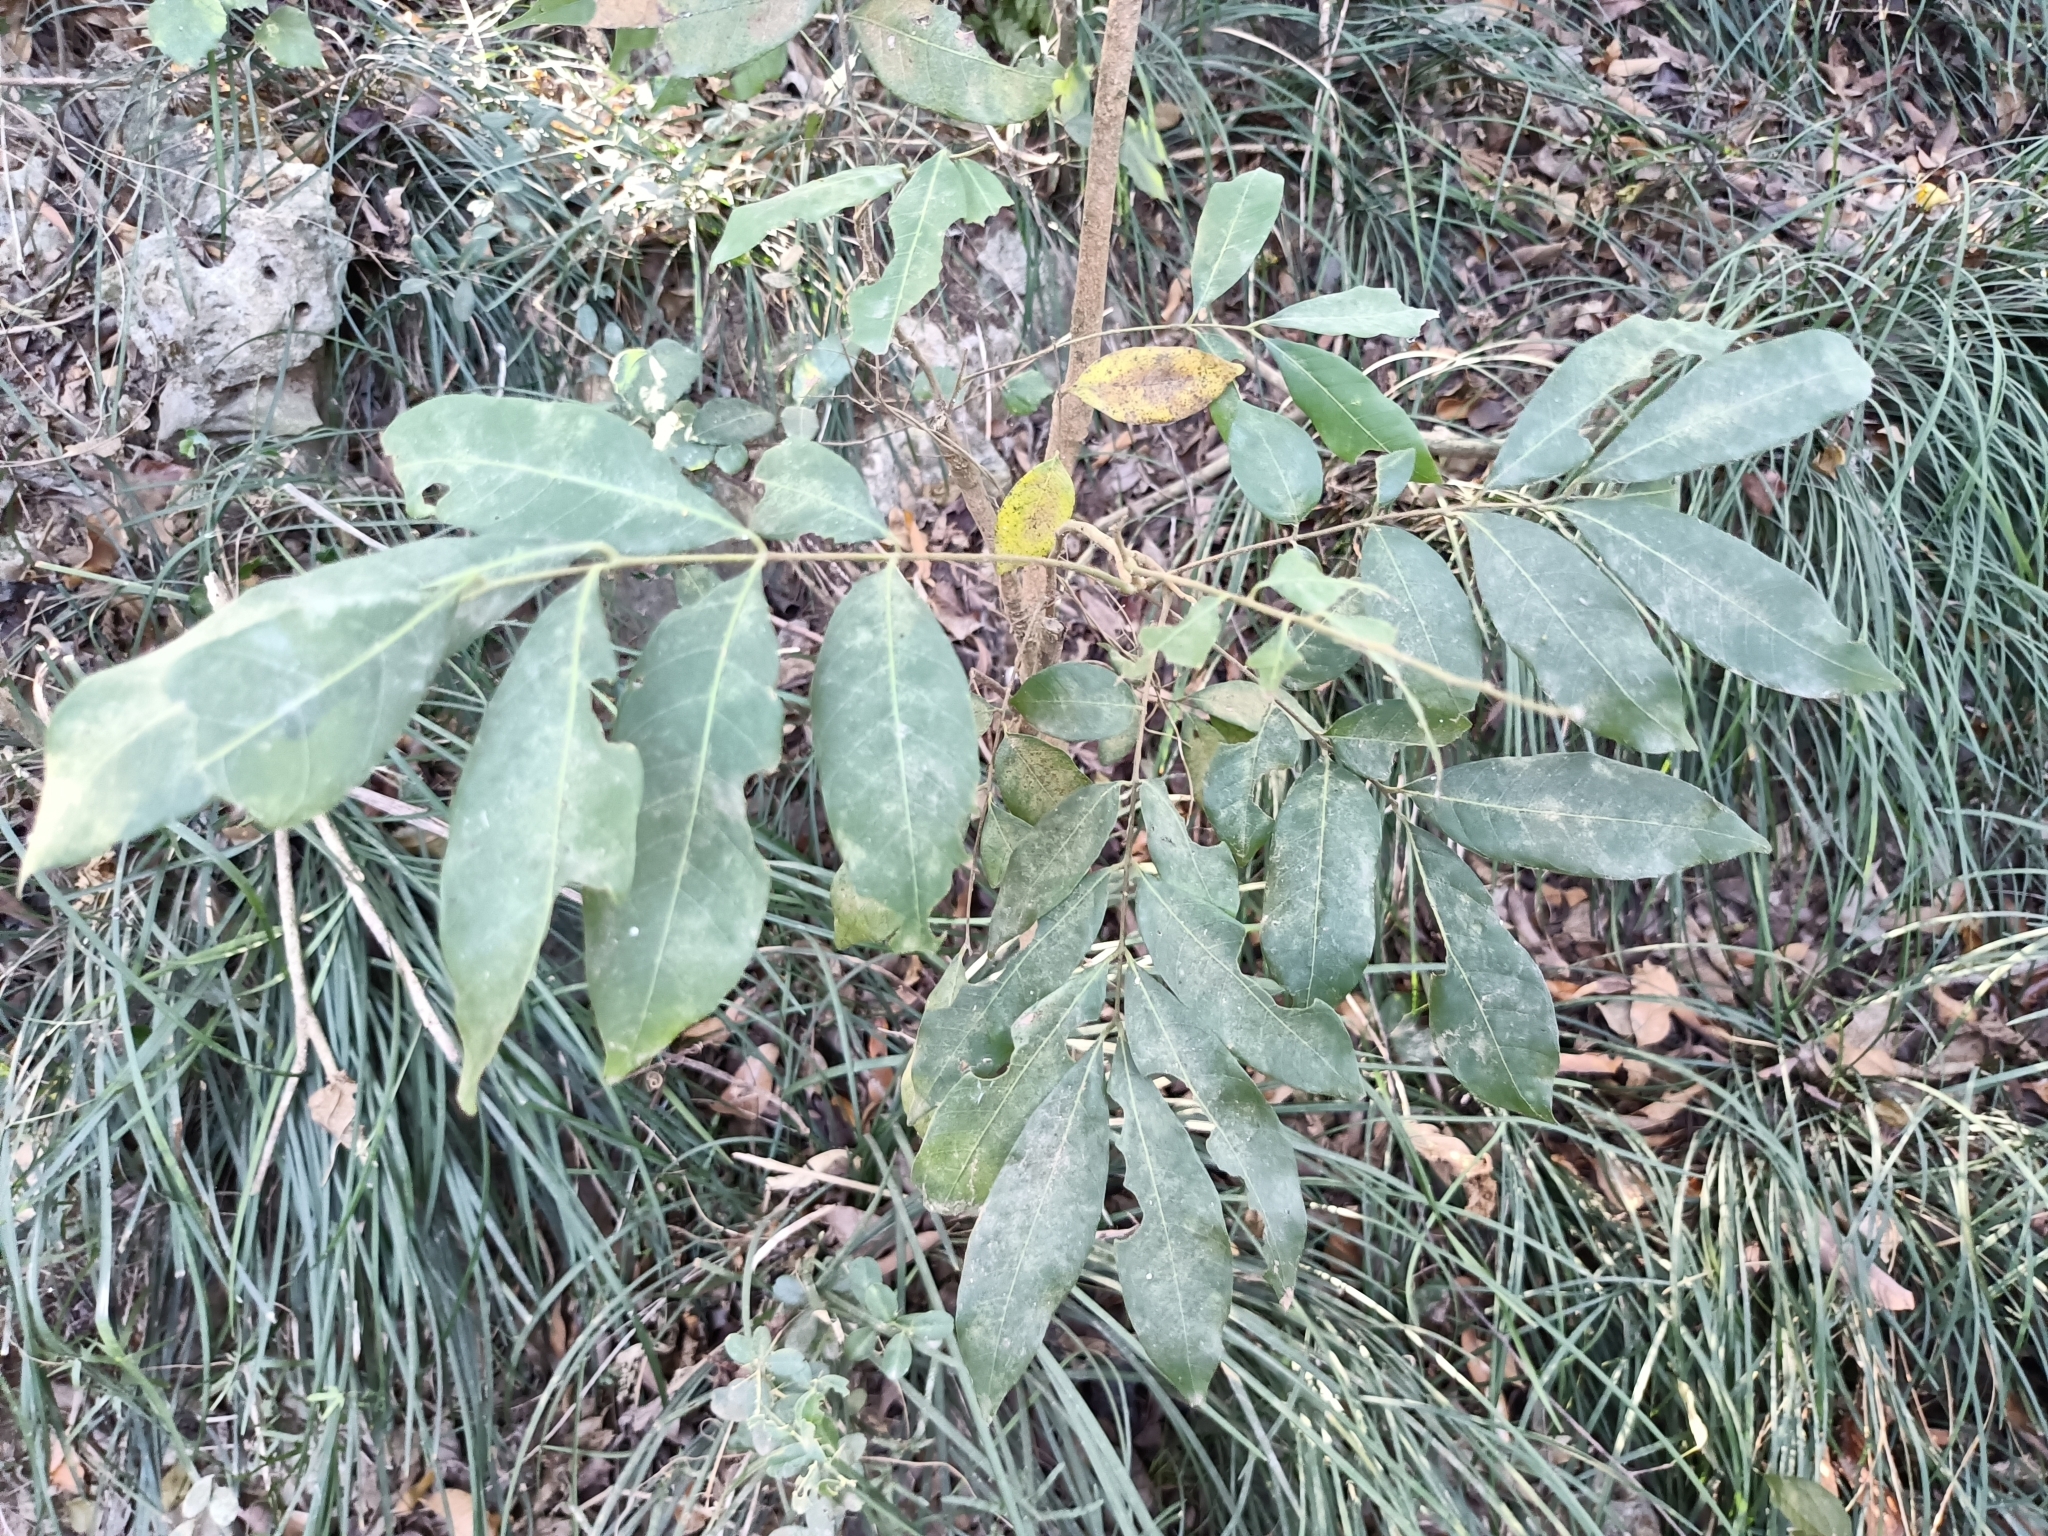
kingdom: Plantae
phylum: Tracheophyta
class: Magnoliopsida
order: Sapindales
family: Sapindaceae
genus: Dimocarpus
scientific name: Dimocarpus longan
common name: Longan
